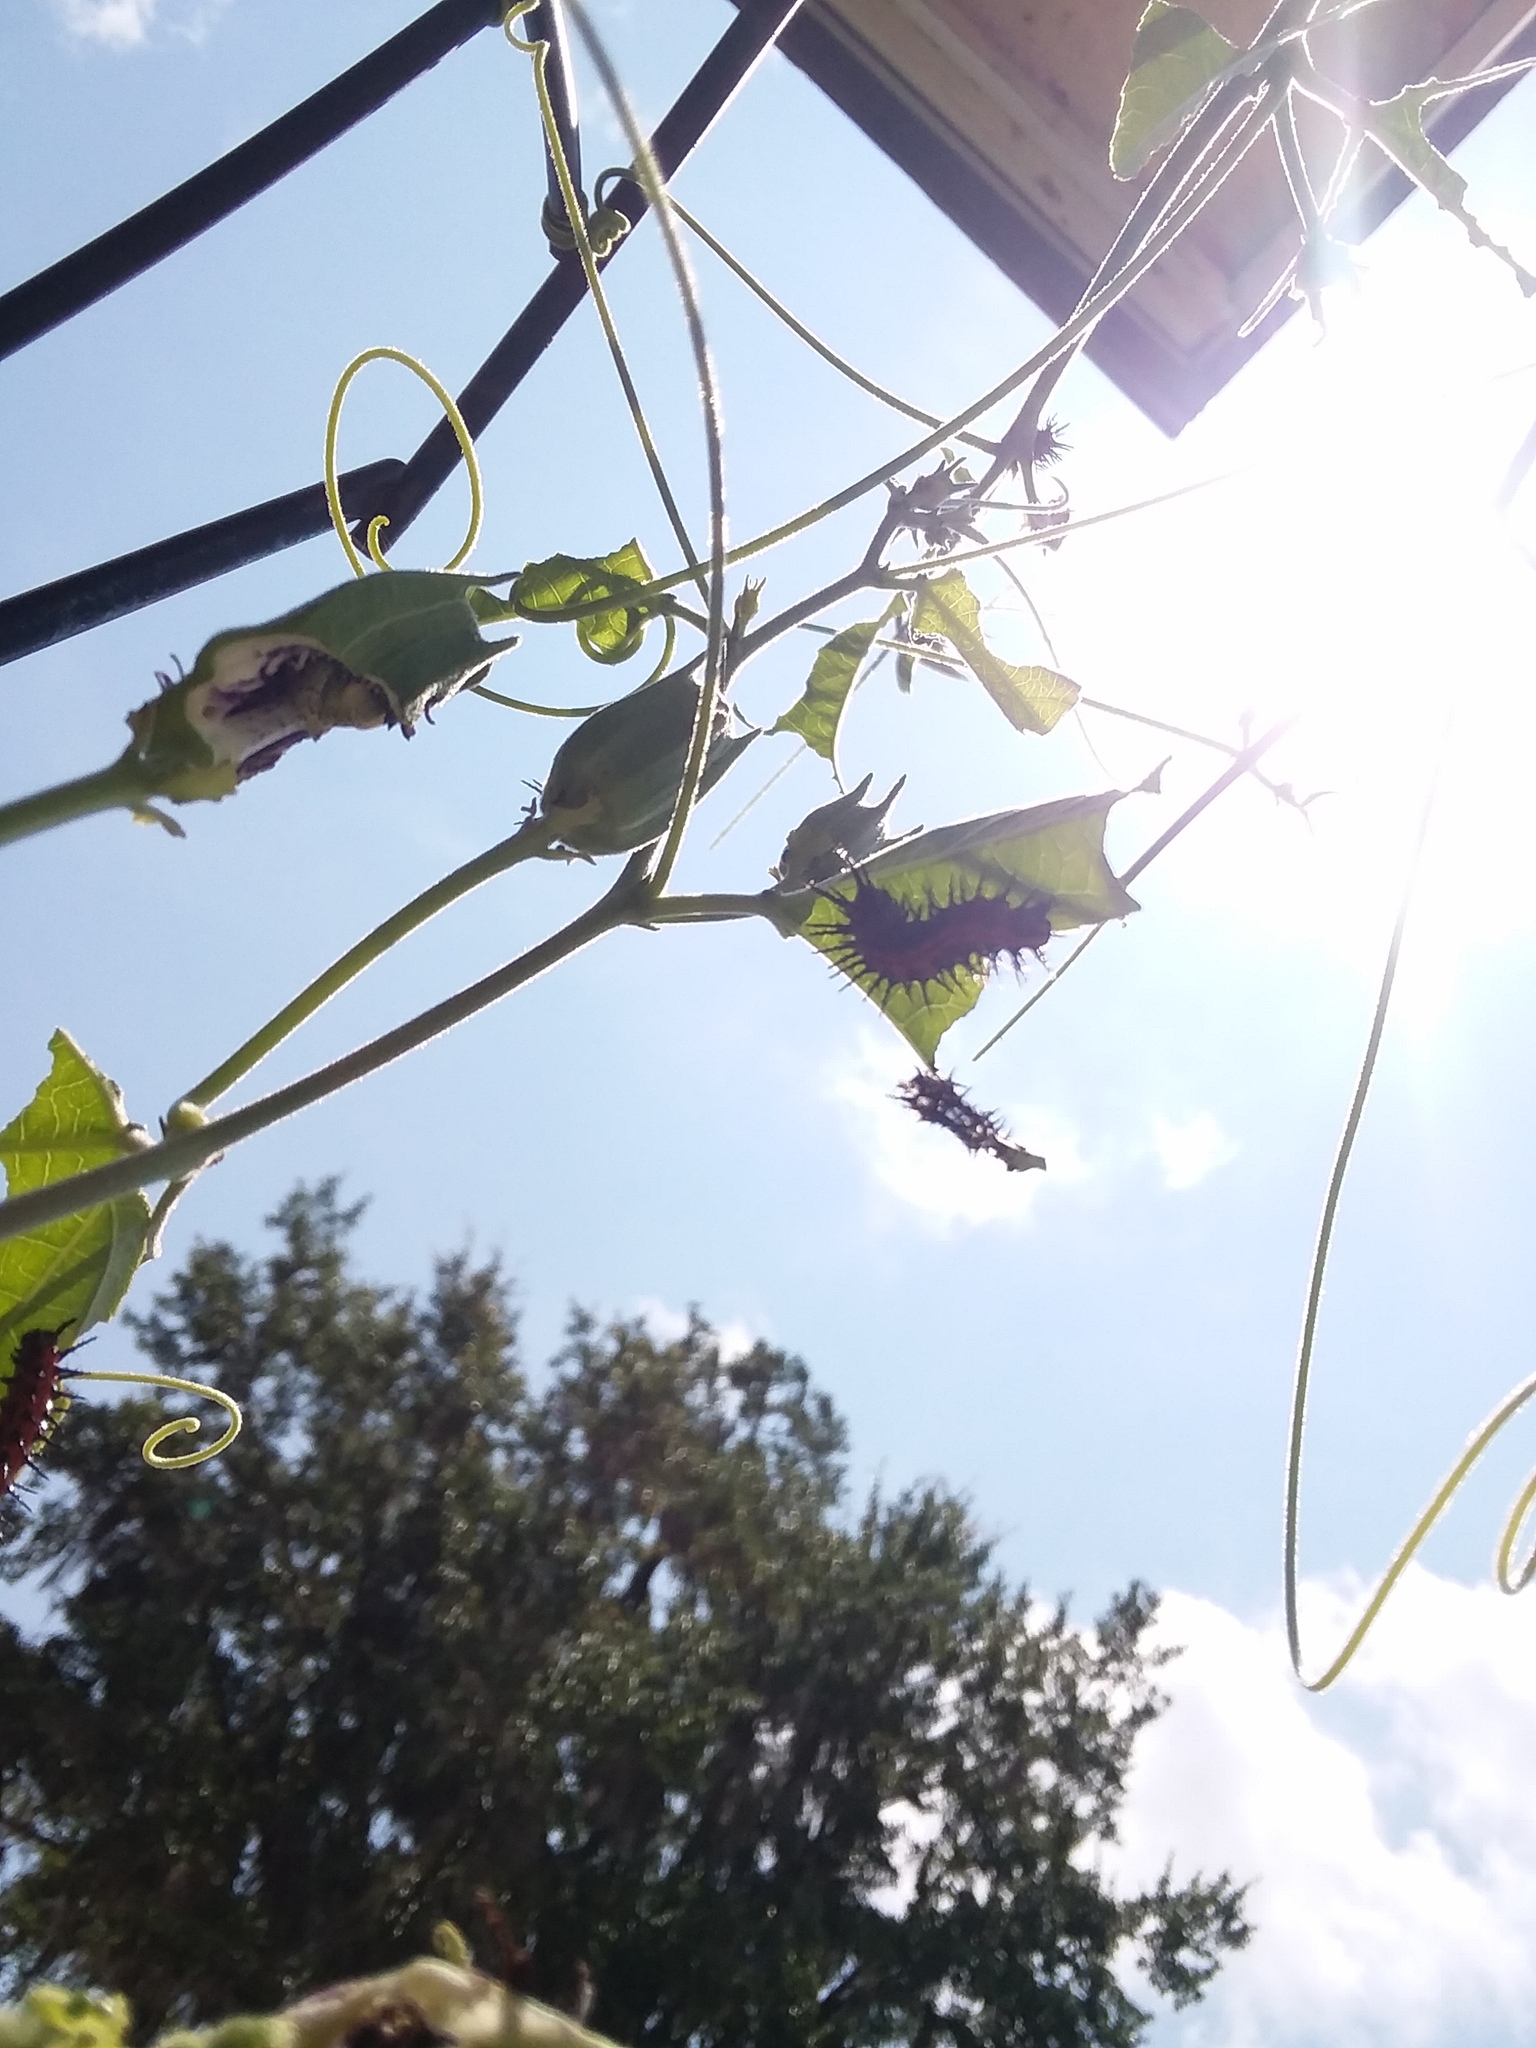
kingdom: Animalia
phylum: Arthropoda
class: Insecta
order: Lepidoptera
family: Nymphalidae
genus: Dione
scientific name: Dione vanillae
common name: Gulf fritillary
